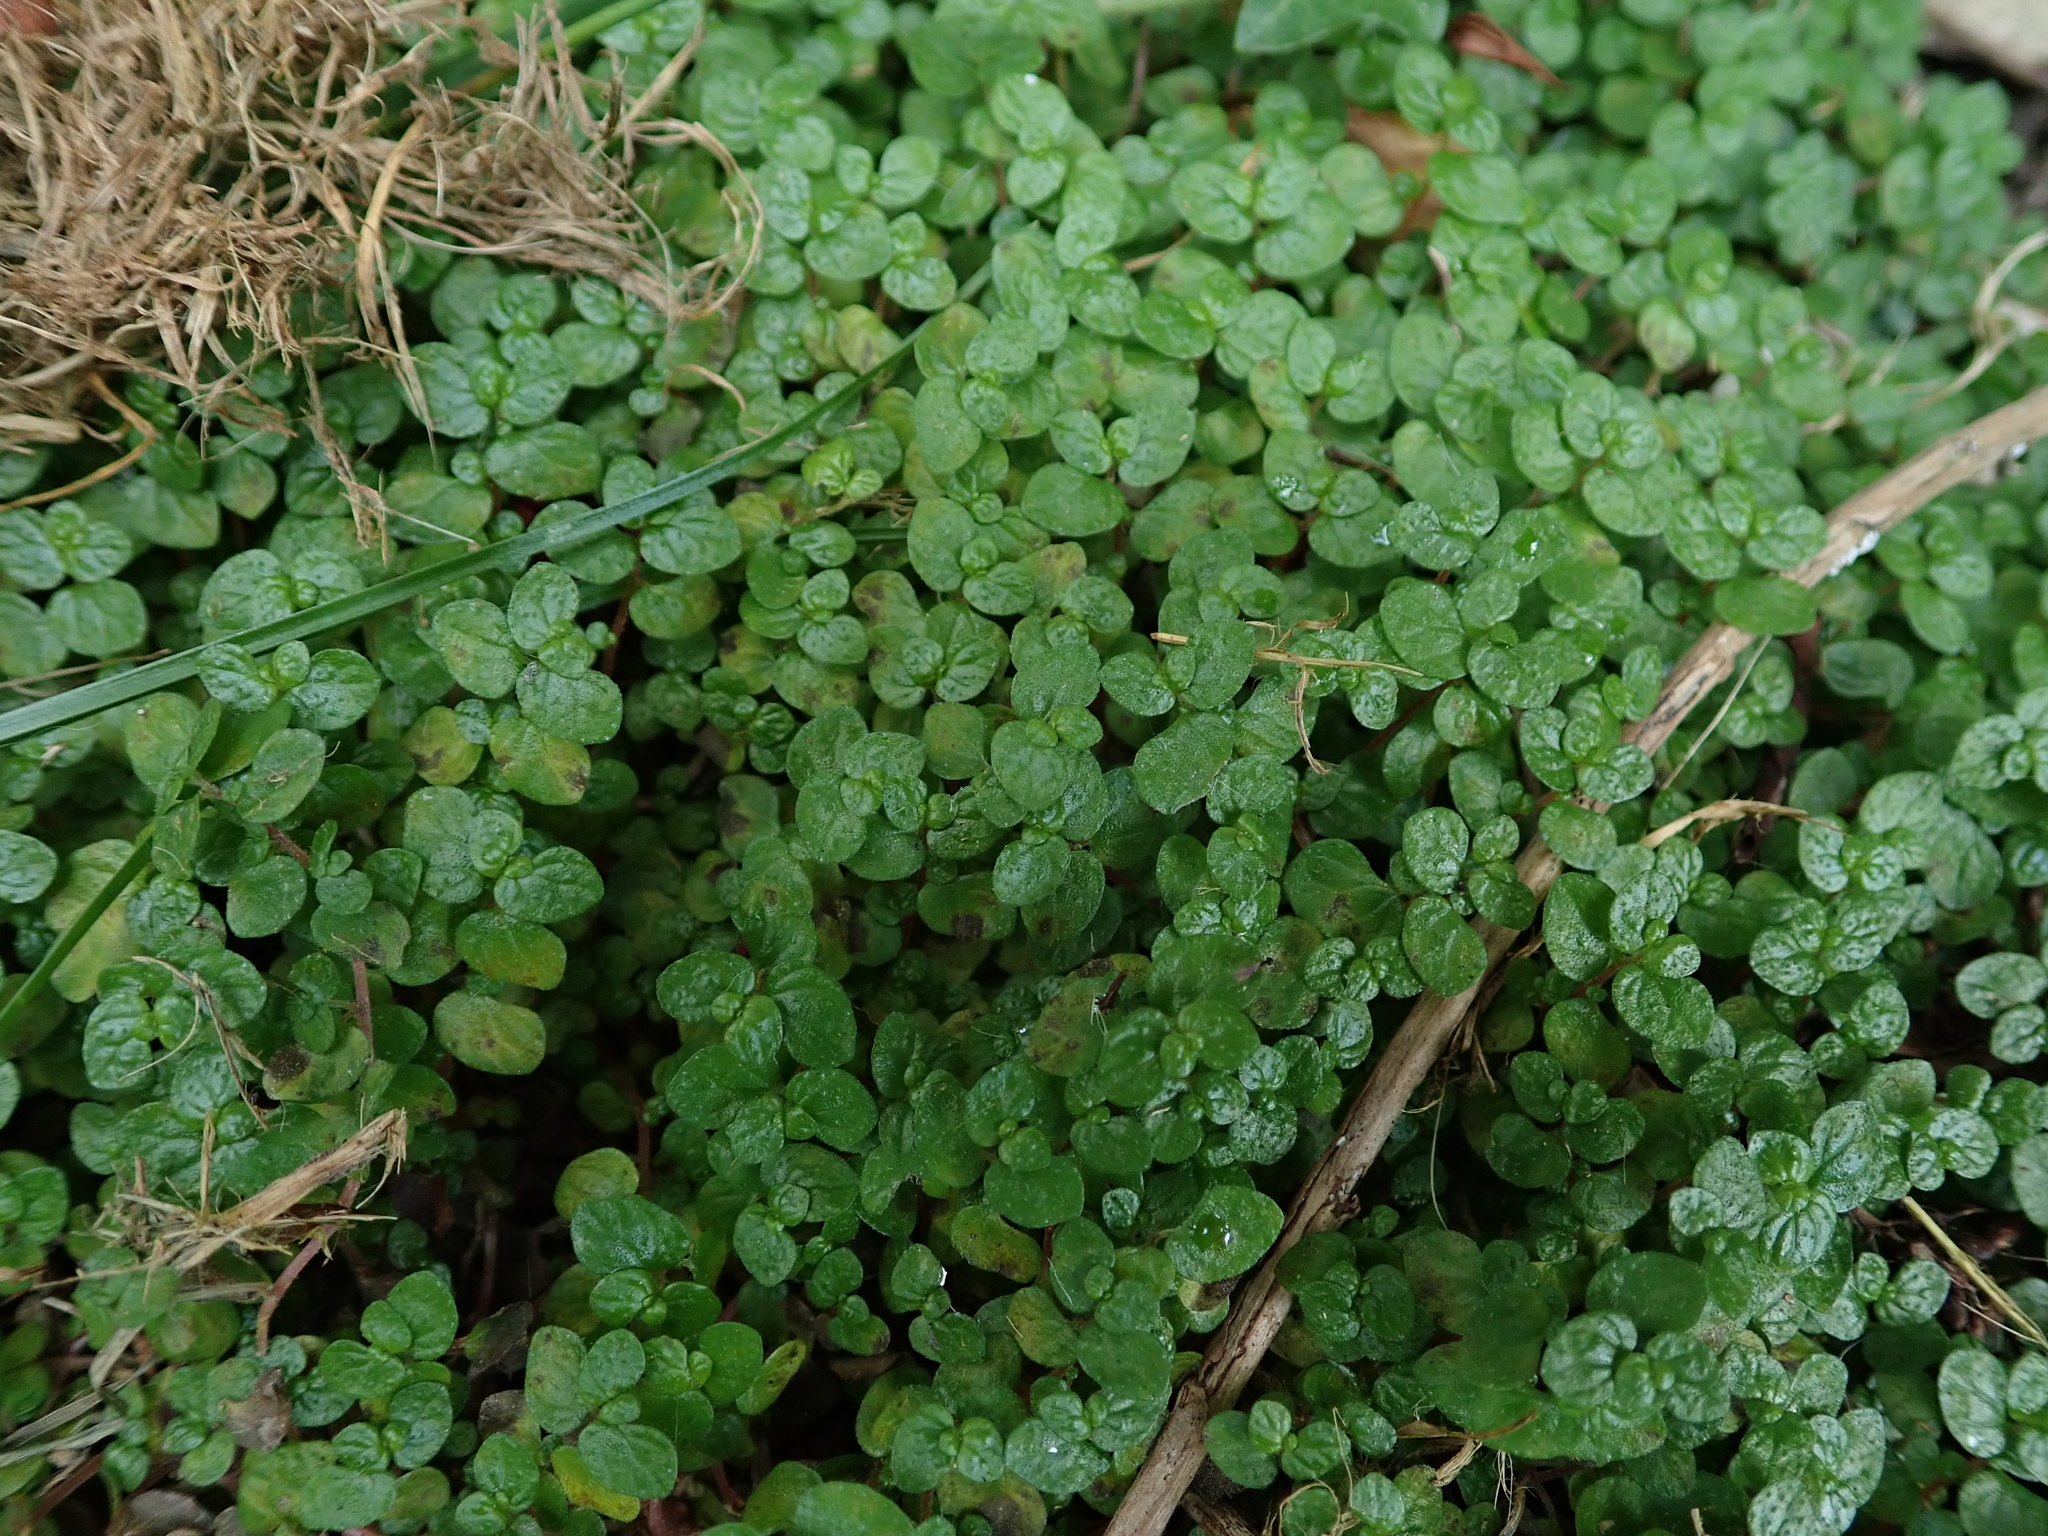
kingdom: Plantae
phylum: Tracheophyta
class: Magnoliopsida
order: Rosales
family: Urticaceae
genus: Soleirolia
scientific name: Soleirolia soleirolii
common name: Mind-your-own-business
